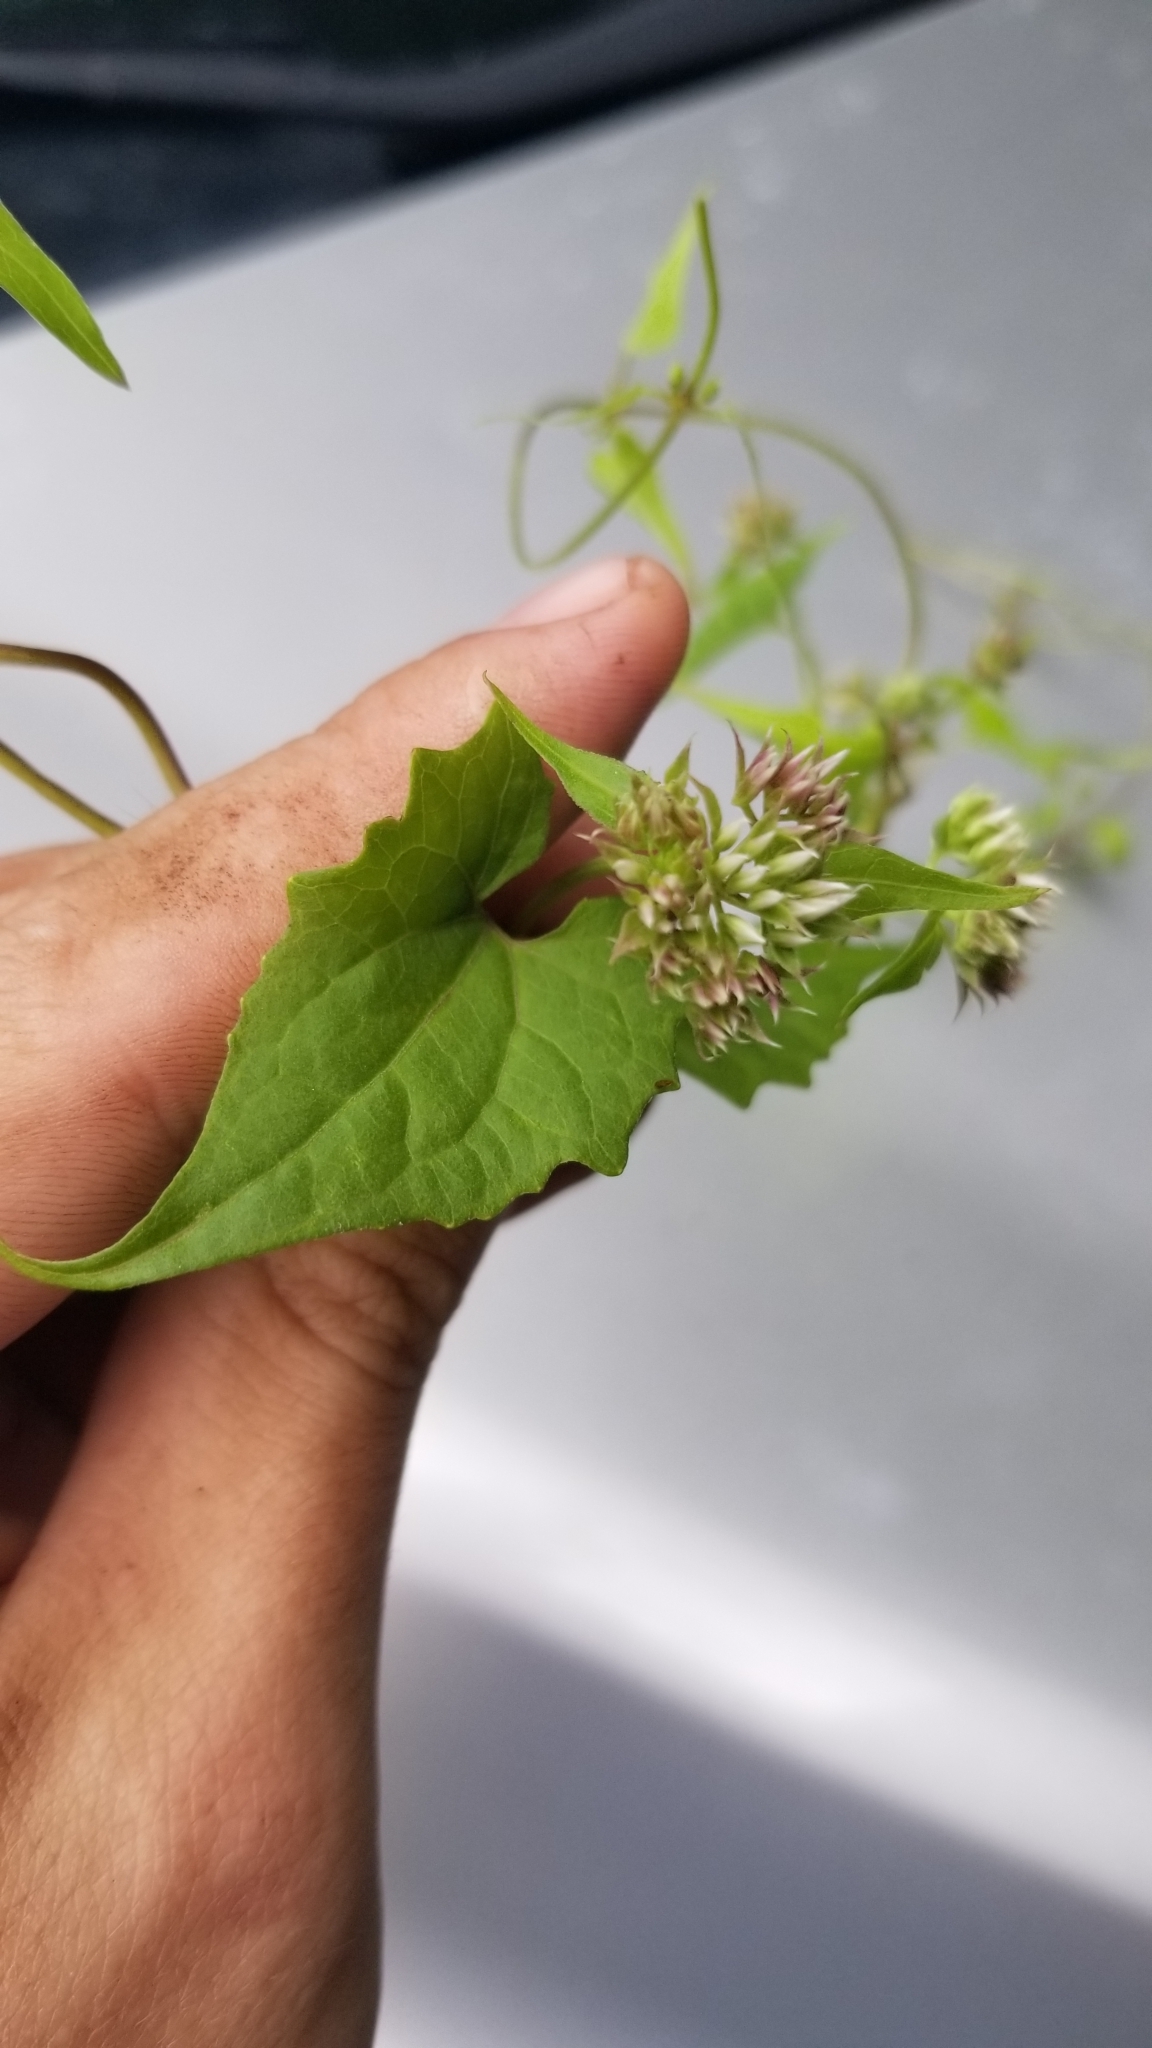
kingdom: Plantae
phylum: Tracheophyta
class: Magnoliopsida
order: Asterales
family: Asteraceae
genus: Mikania
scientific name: Mikania scandens
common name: Climbing hempvine
